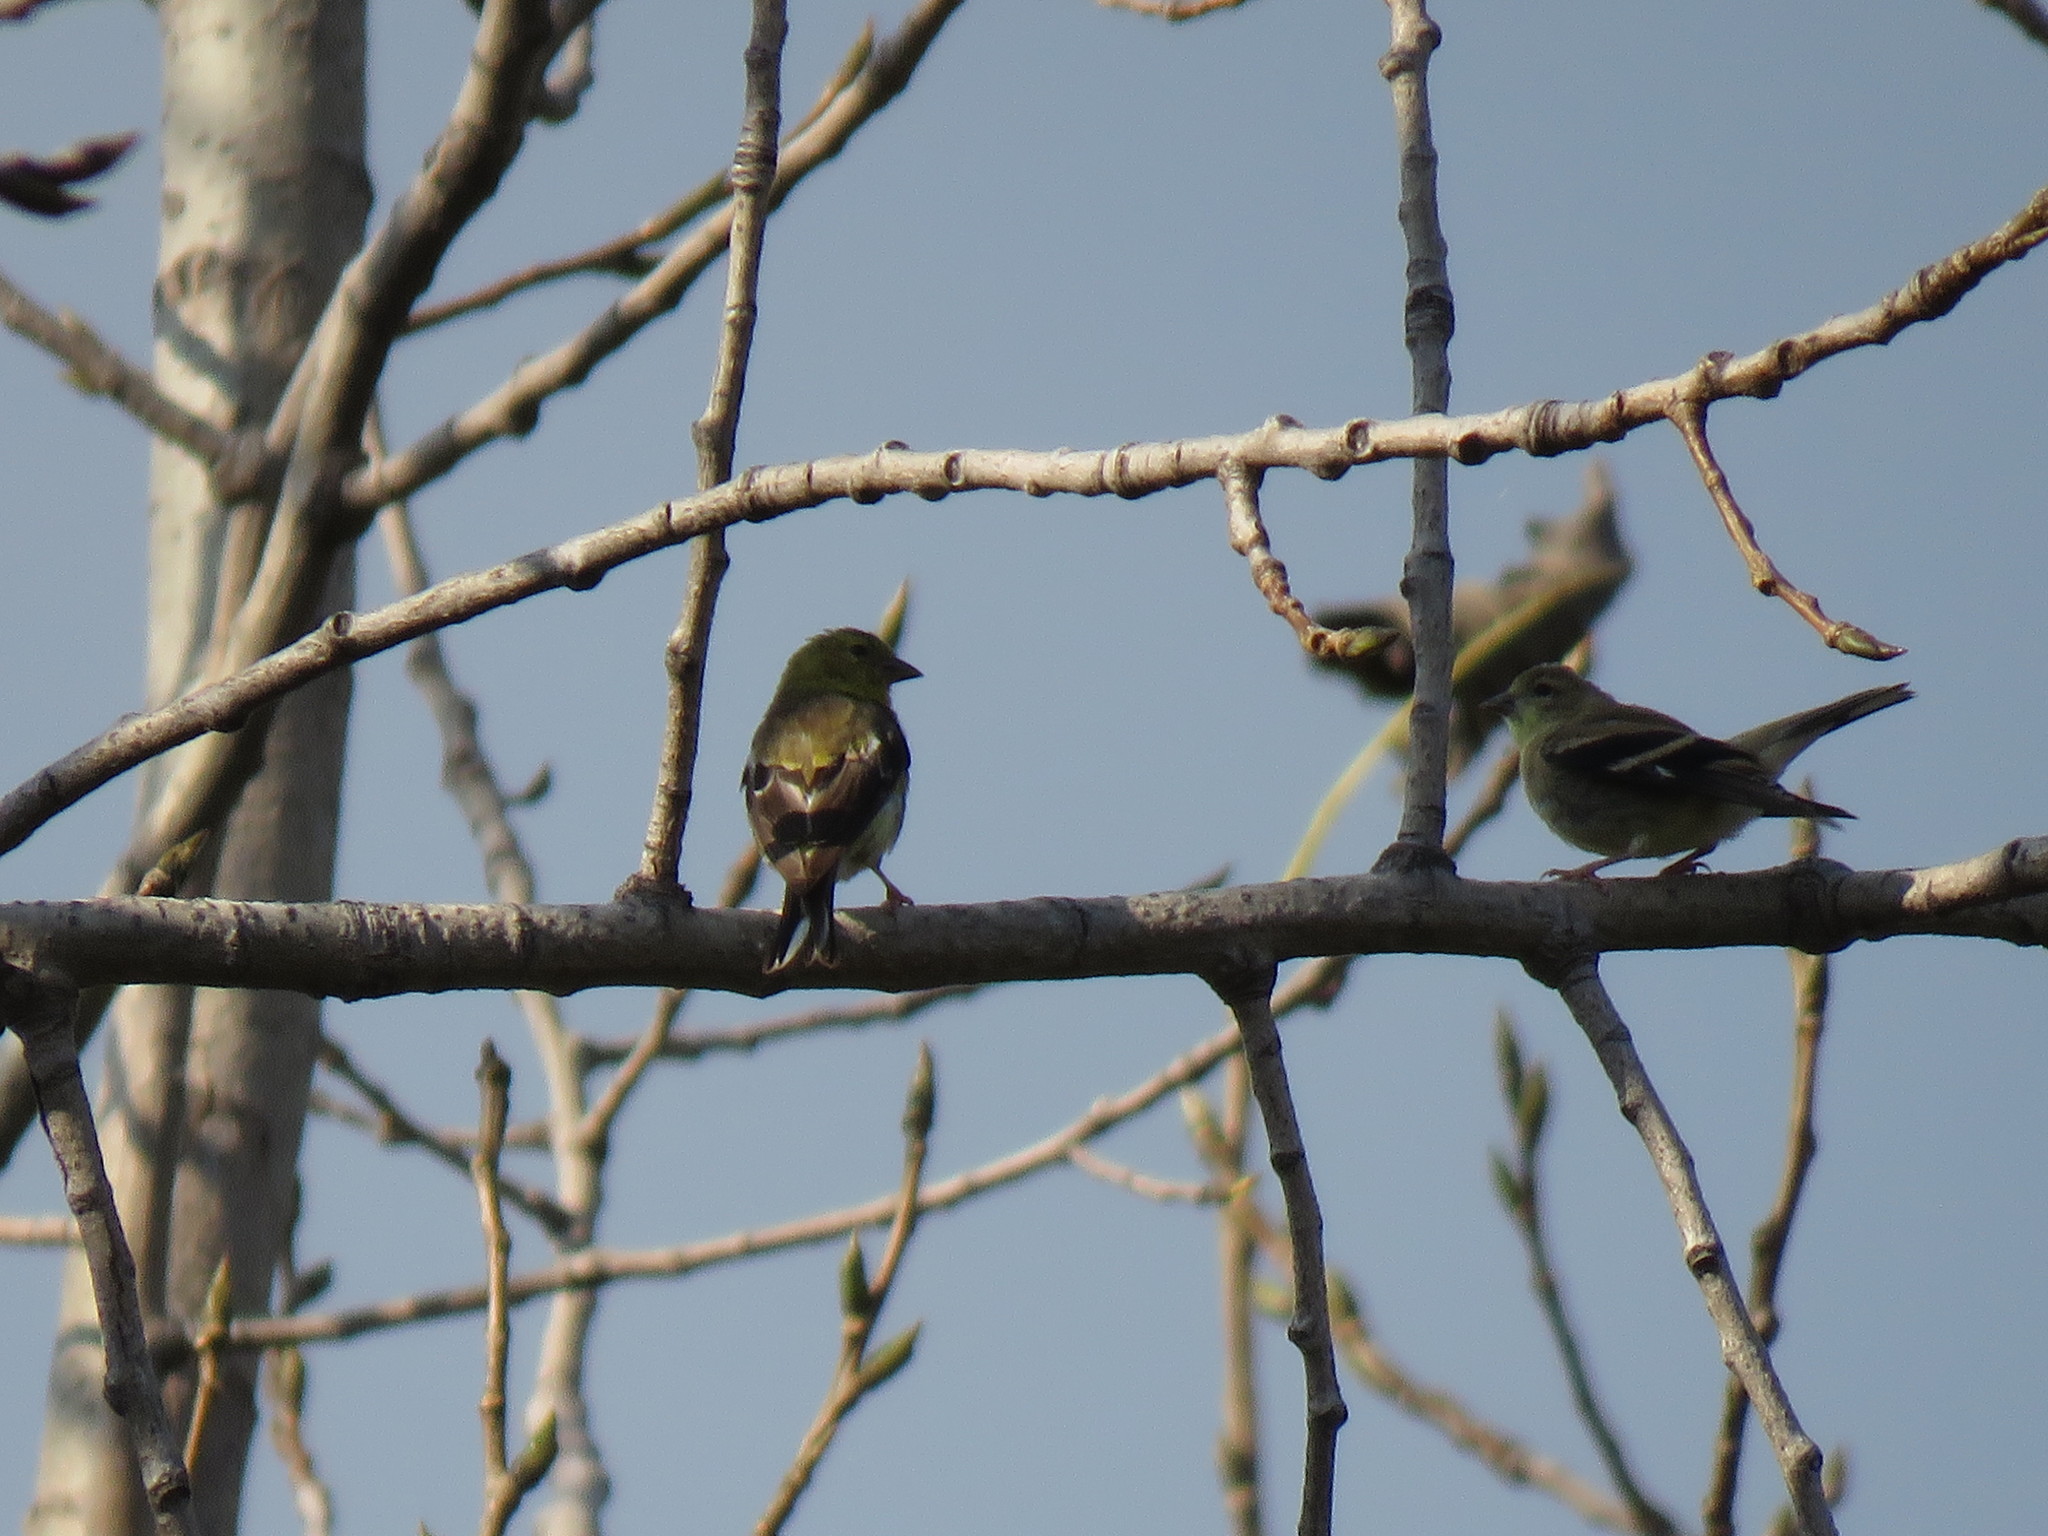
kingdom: Animalia
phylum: Chordata
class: Aves
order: Passeriformes
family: Fringillidae
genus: Spinus
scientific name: Spinus tristis
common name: American goldfinch
